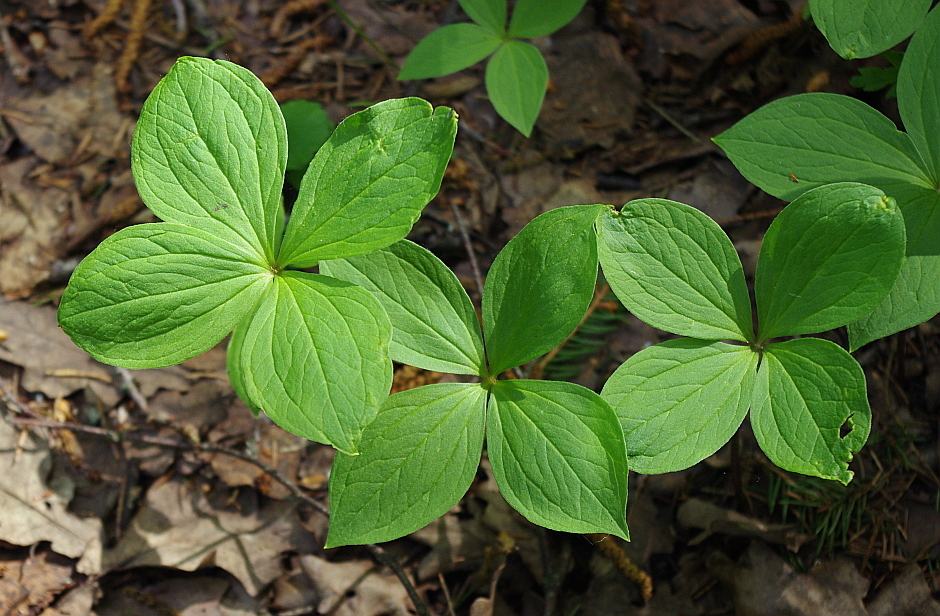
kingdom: Plantae
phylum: Tracheophyta
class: Liliopsida
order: Liliales
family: Melanthiaceae
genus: Paris
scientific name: Paris quadrifolia
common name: Herb-paris
